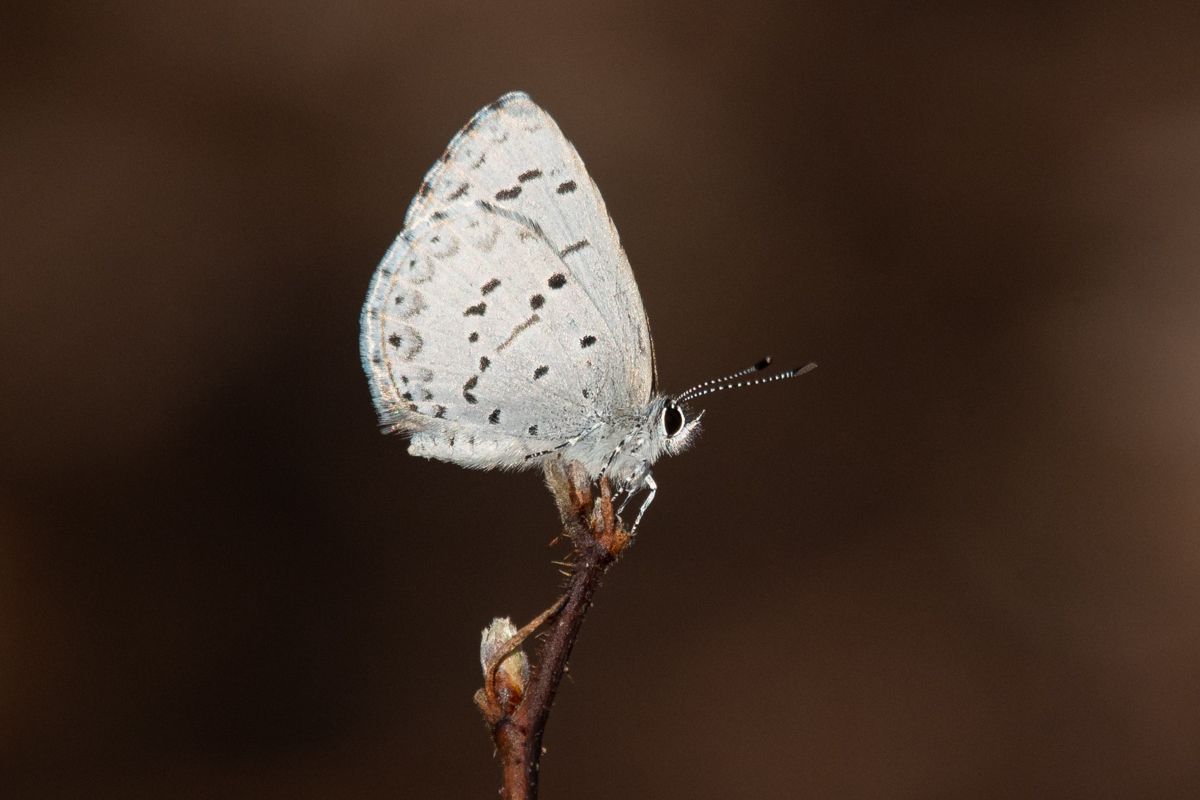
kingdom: Animalia
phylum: Arthropoda
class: Insecta
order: Lepidoptera
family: Lycaenidae
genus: Celastrina
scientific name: Celastrina lucia
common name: Lucia azure
